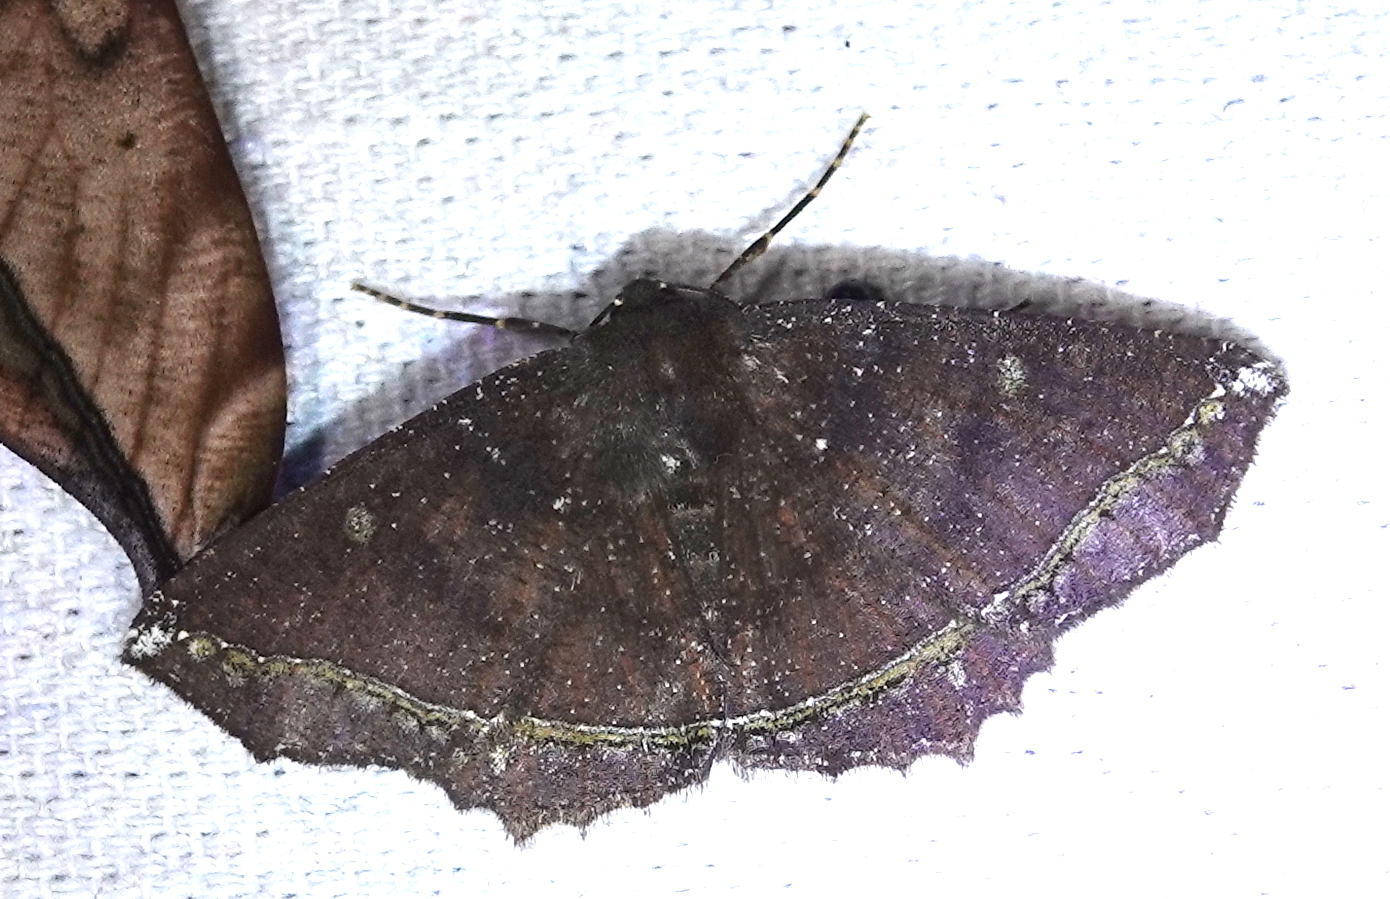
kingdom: Animalia
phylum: Arthropoda
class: Insecta
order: Lepidoptera
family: Geometridae
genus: Synnomos
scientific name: Synnomos firmamentaria
